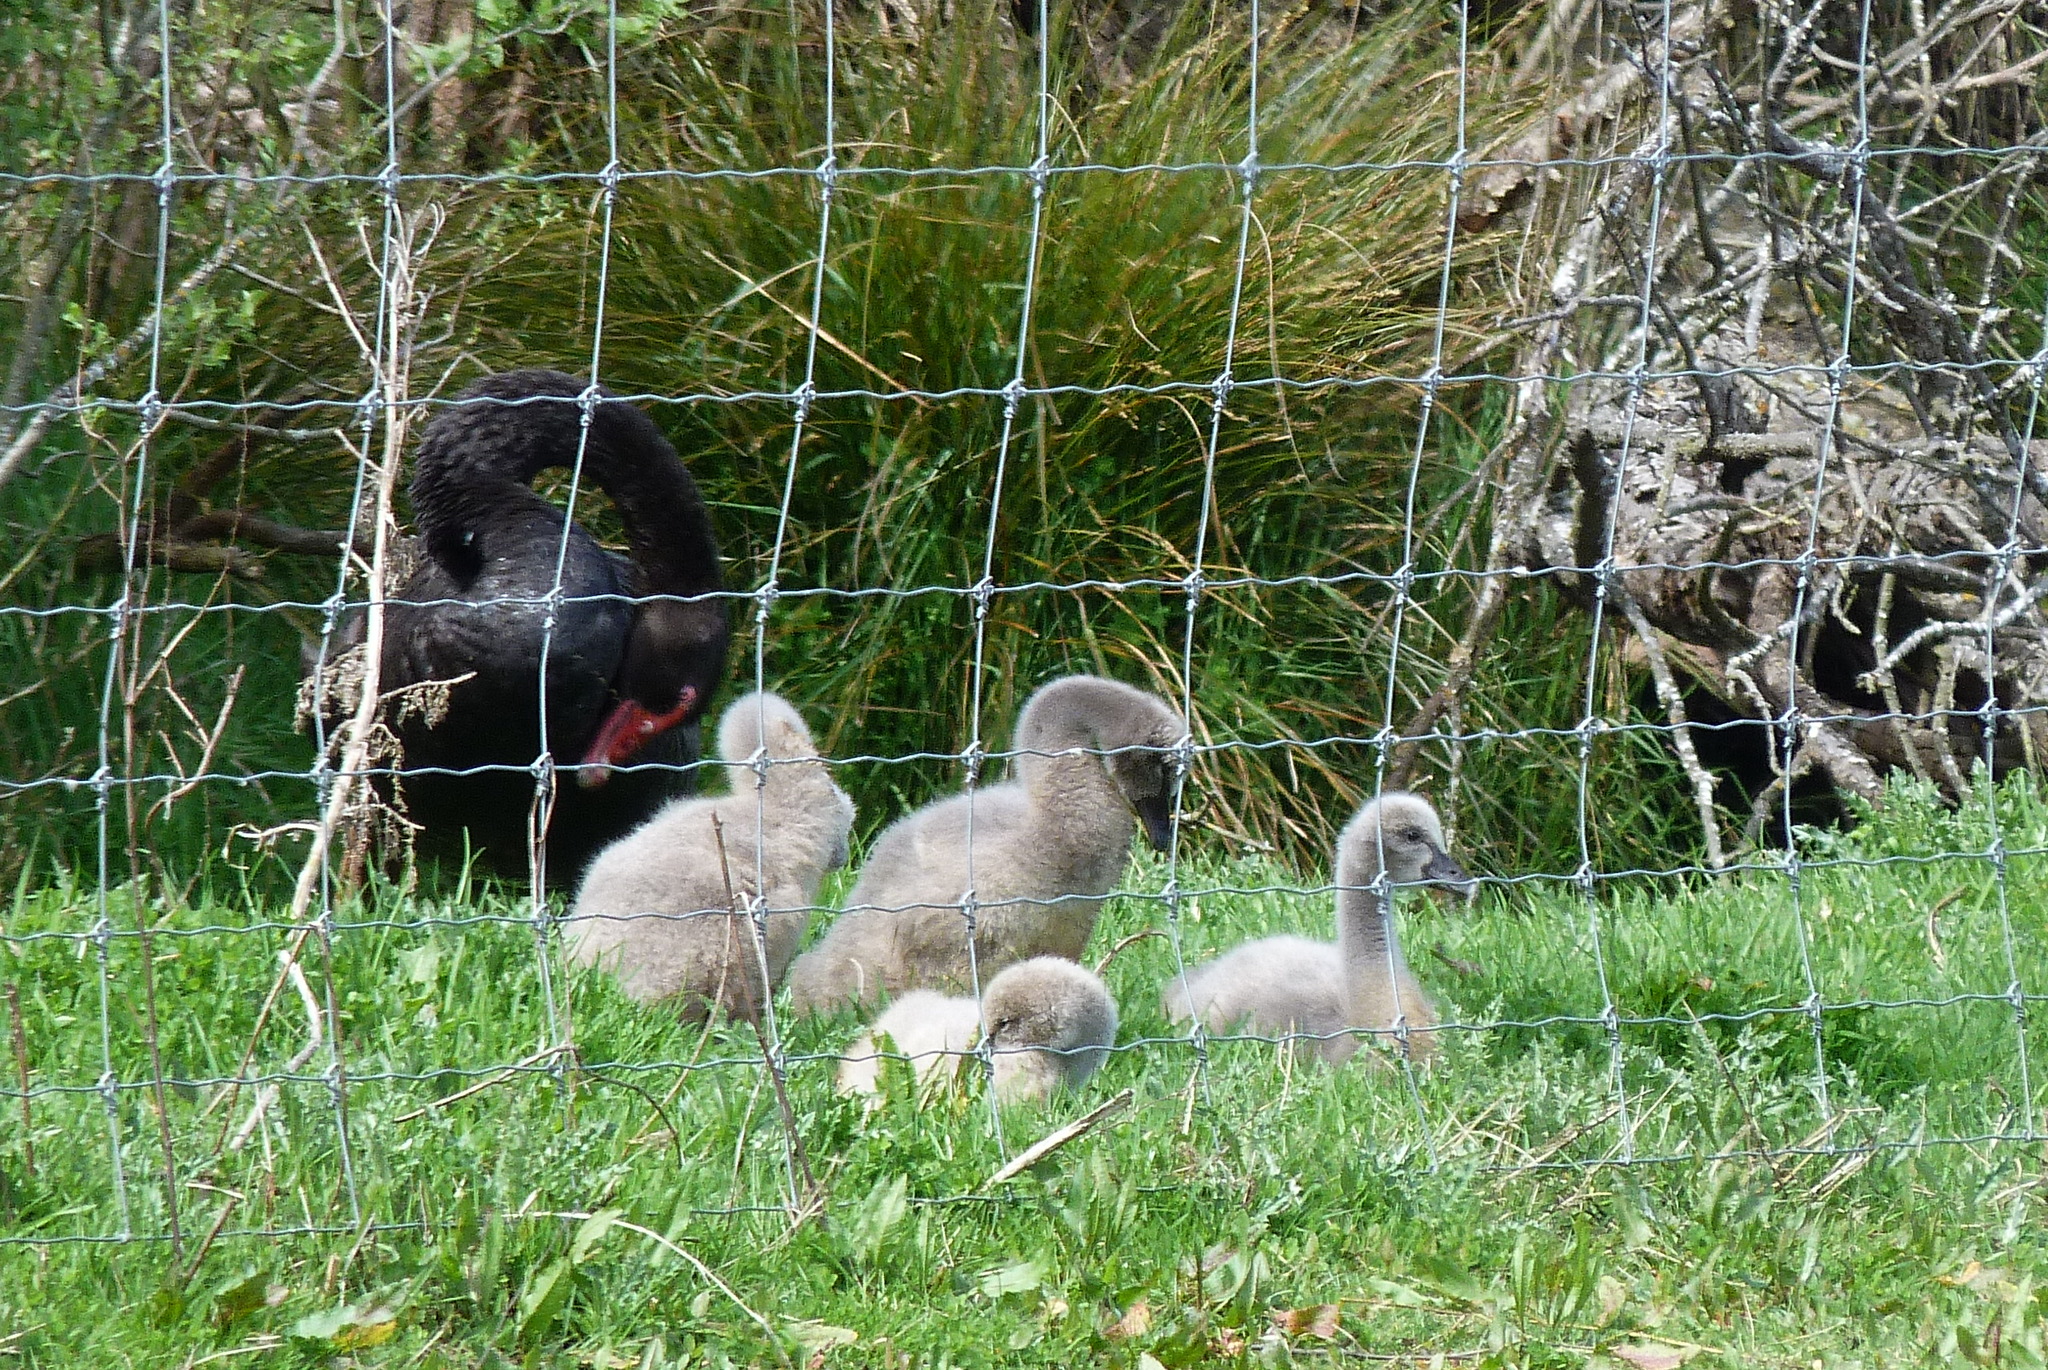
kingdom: Animalia
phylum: Chordata
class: Aves
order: Anseriformes
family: Anatidae
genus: Cygnus
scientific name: Cygnus atratus
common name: Black swan
